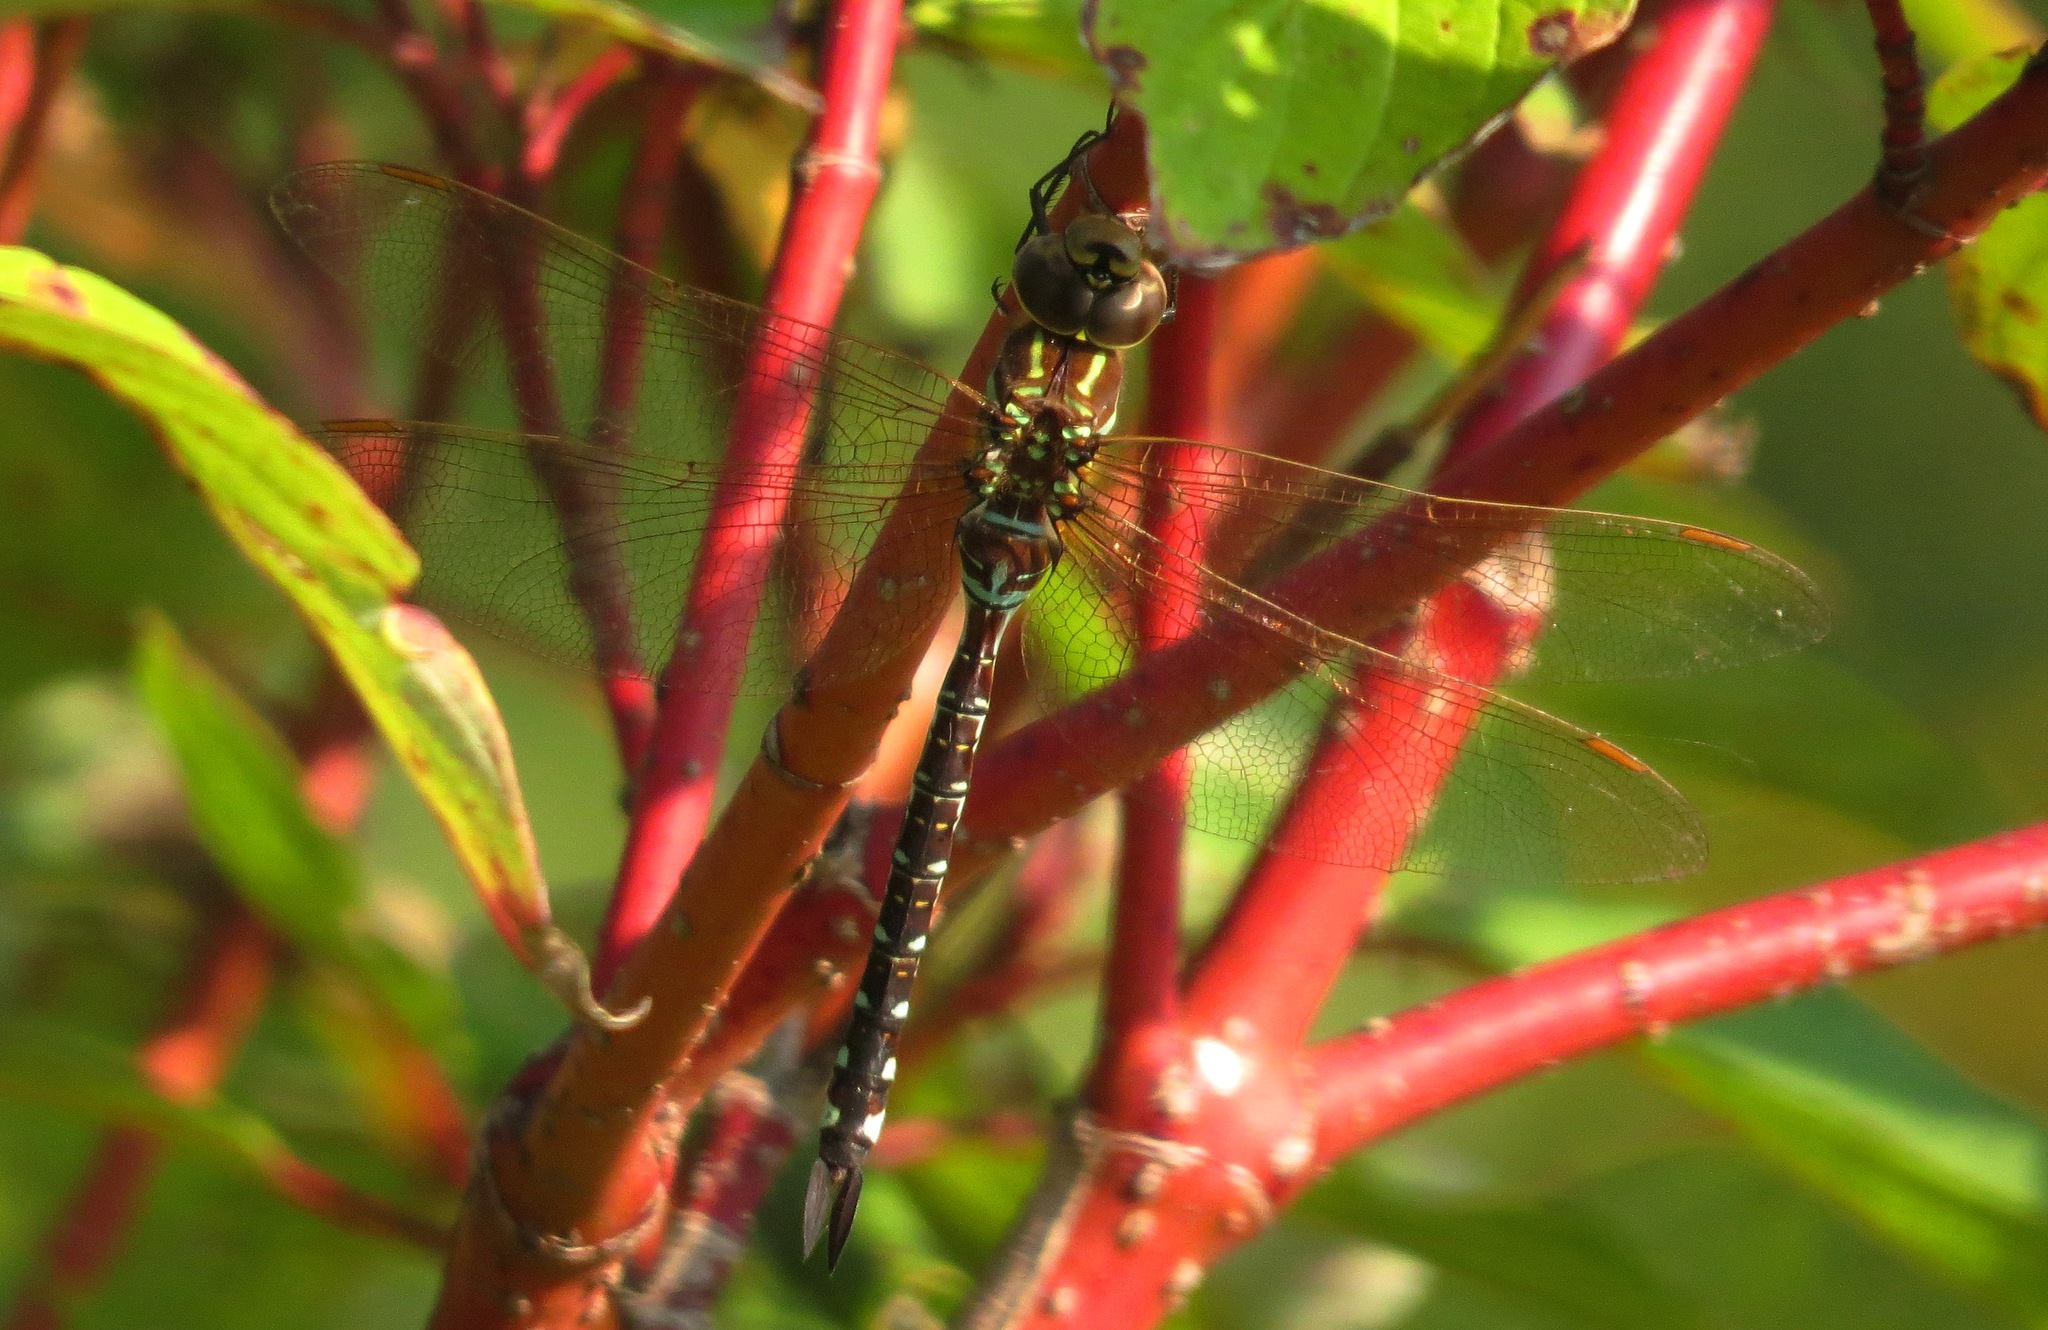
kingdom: Animalia
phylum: Arthropoda
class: Insecta
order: Odonata
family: Aeshnidae
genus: Aeshna
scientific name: Aeshna umbrosa
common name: Shadow darner
